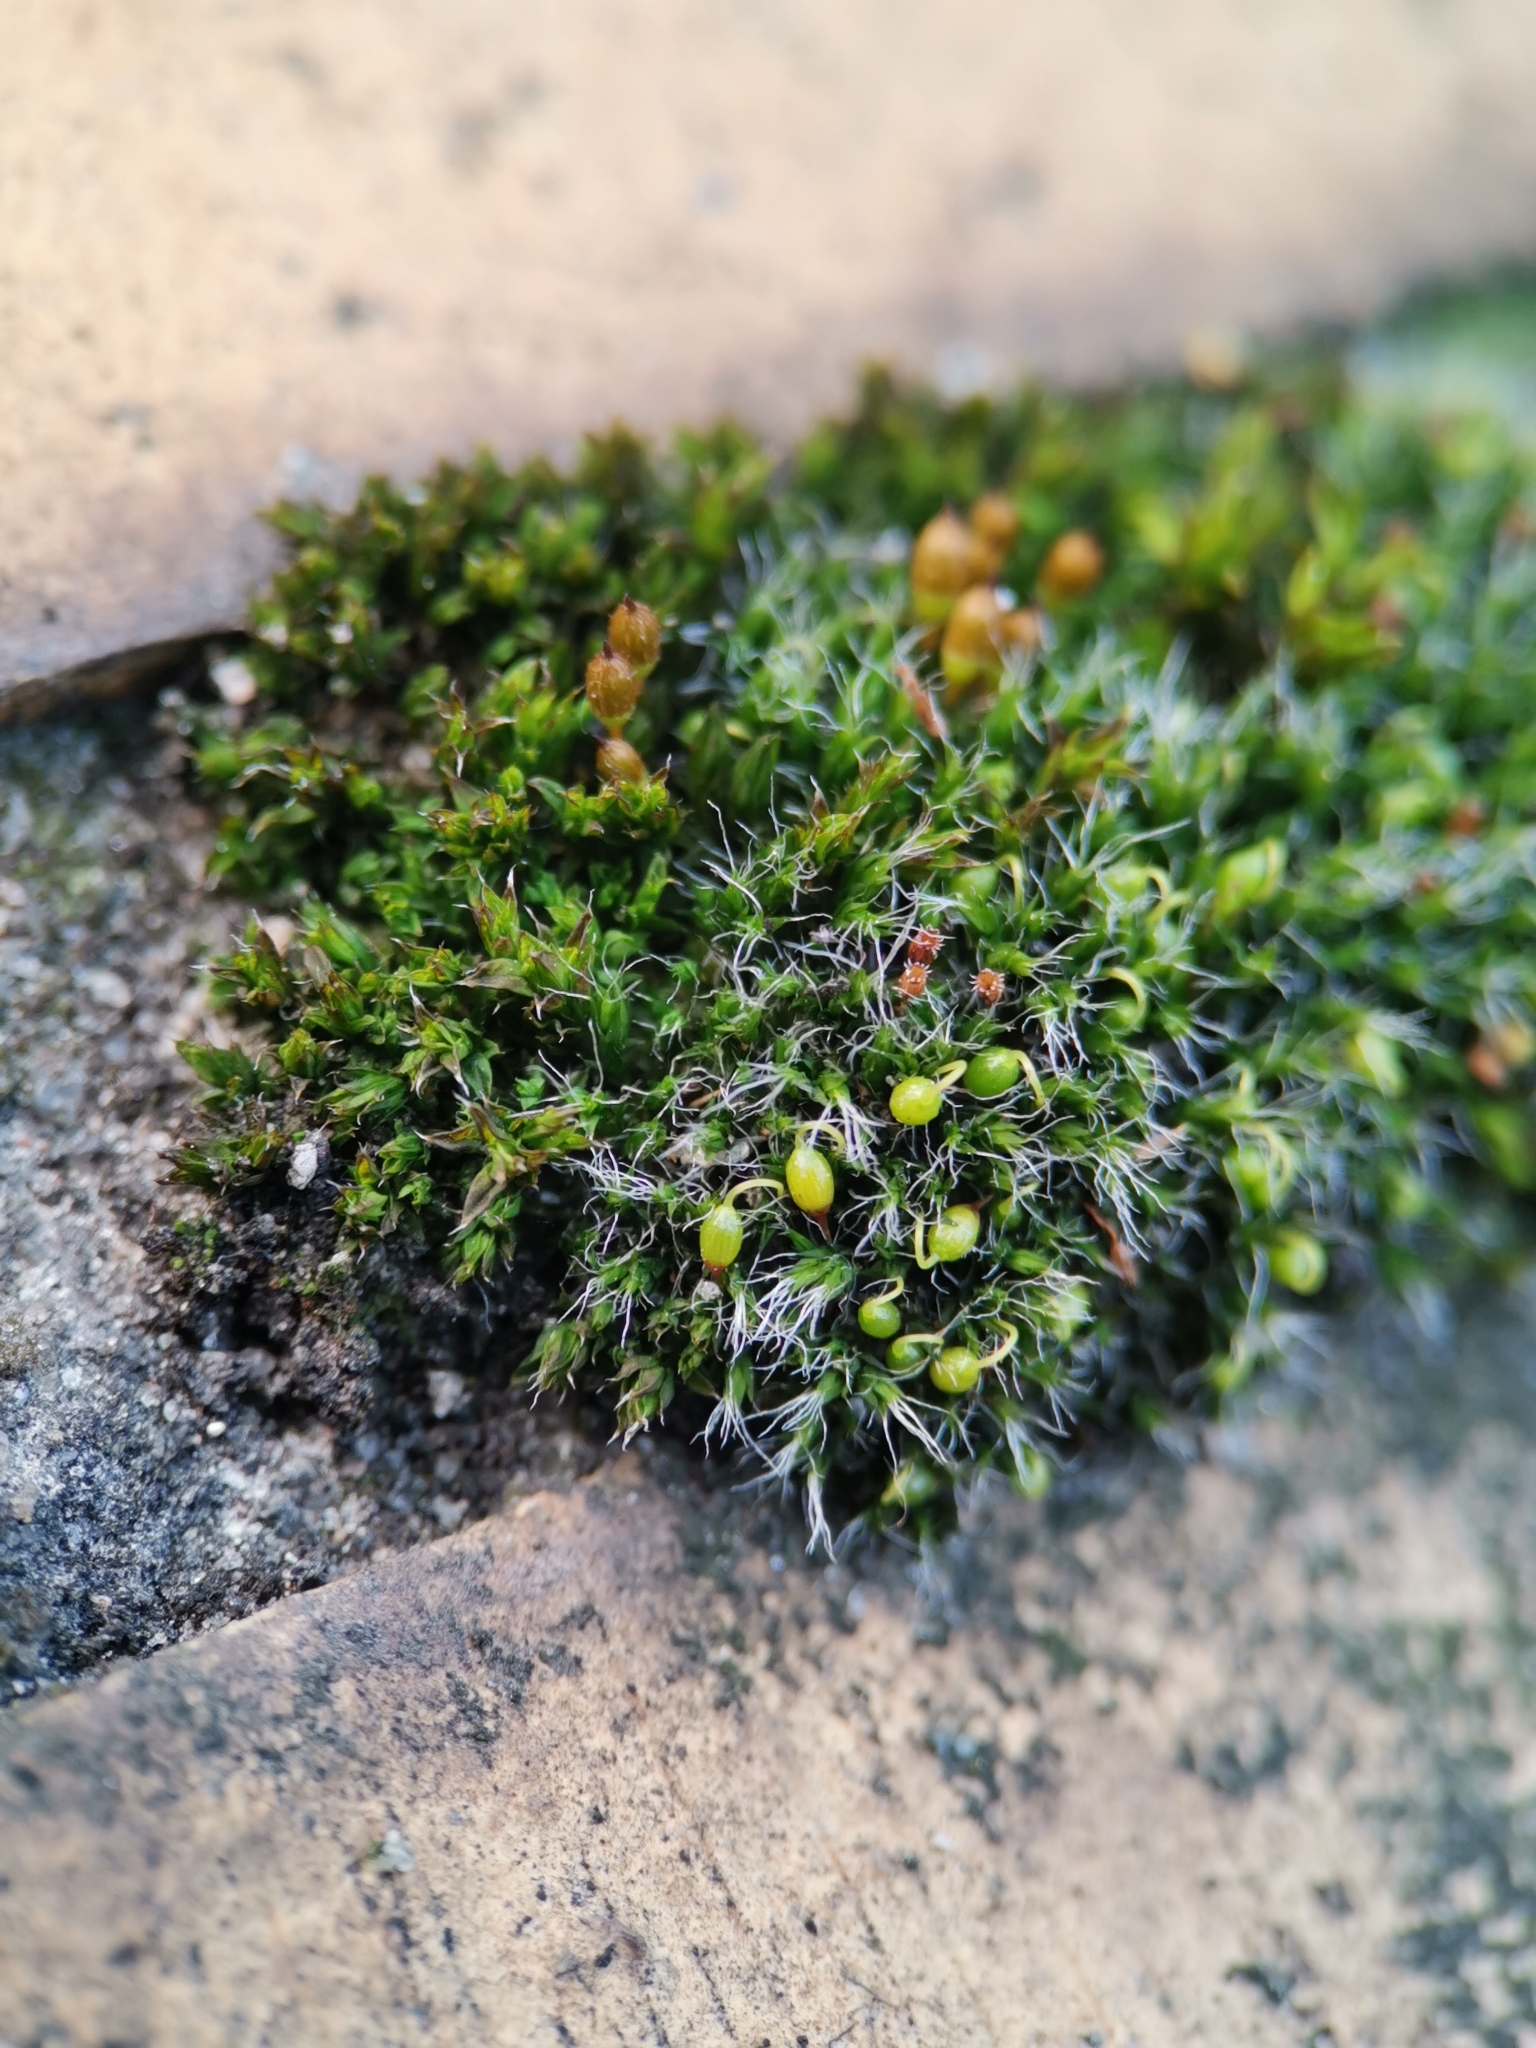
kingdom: Plantae
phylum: Bryophyta
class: Bryopsida
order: Grimmiales
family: Grimmiaceae
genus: Grimmia
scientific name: Grimmia pulvinata
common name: Grey-cushioned grimmia
